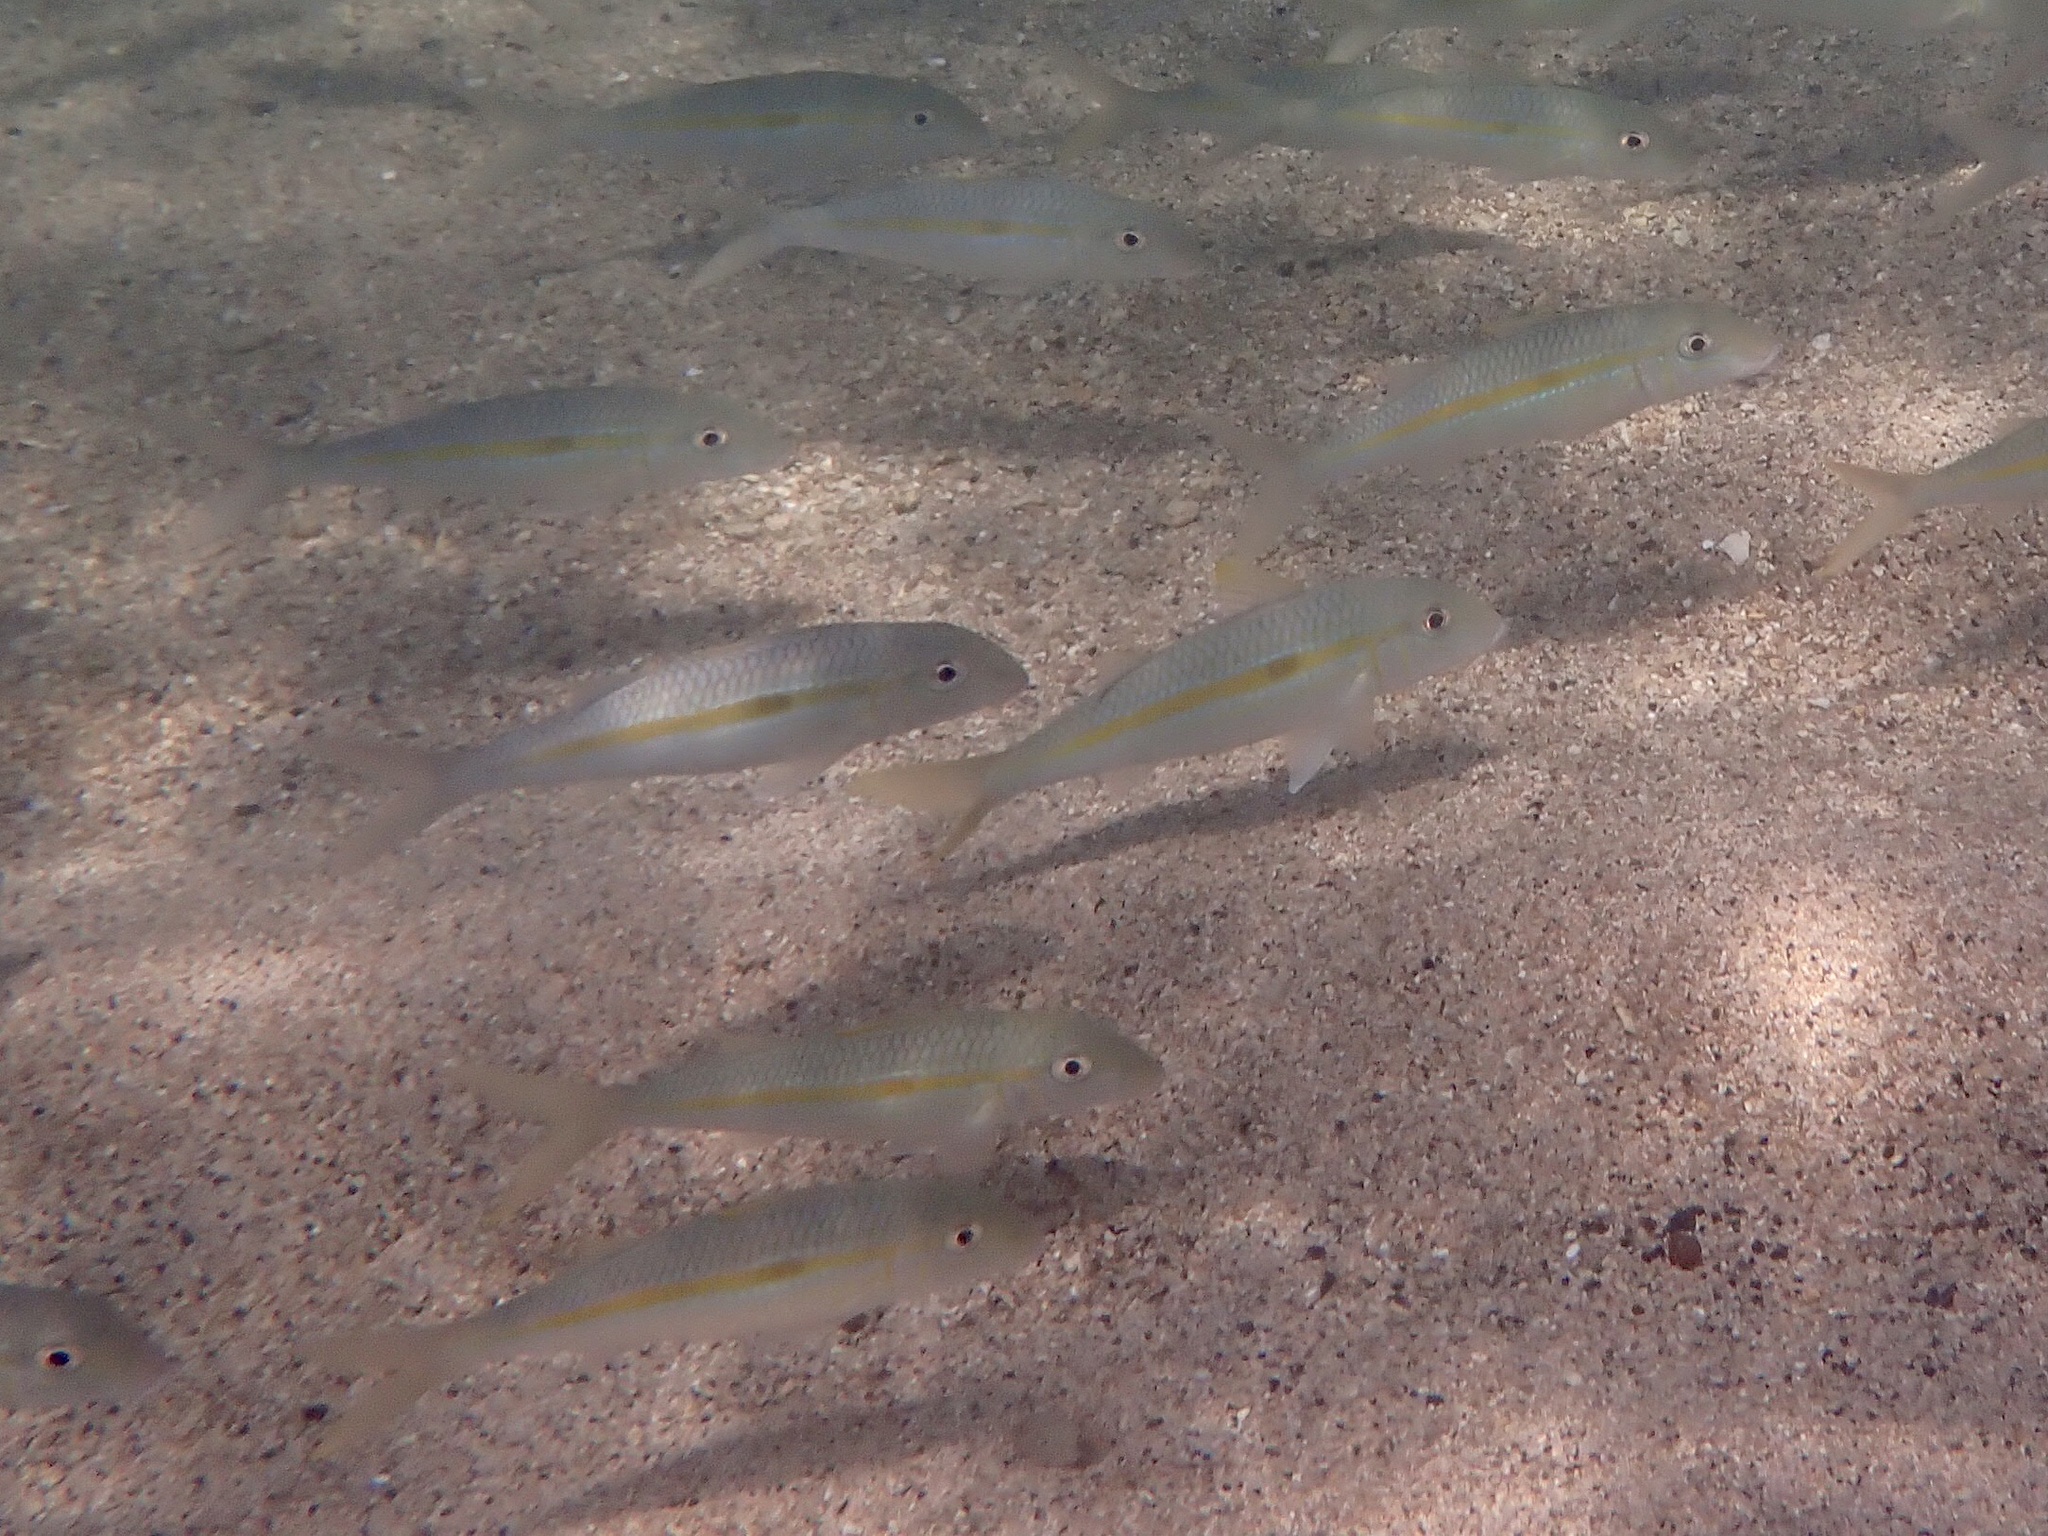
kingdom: Animalia
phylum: Chordata
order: Perciformes
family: Mullidae
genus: Mulloidichthys
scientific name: Mulloidichthys flavolineatus
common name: Yellowstripe goatfish
